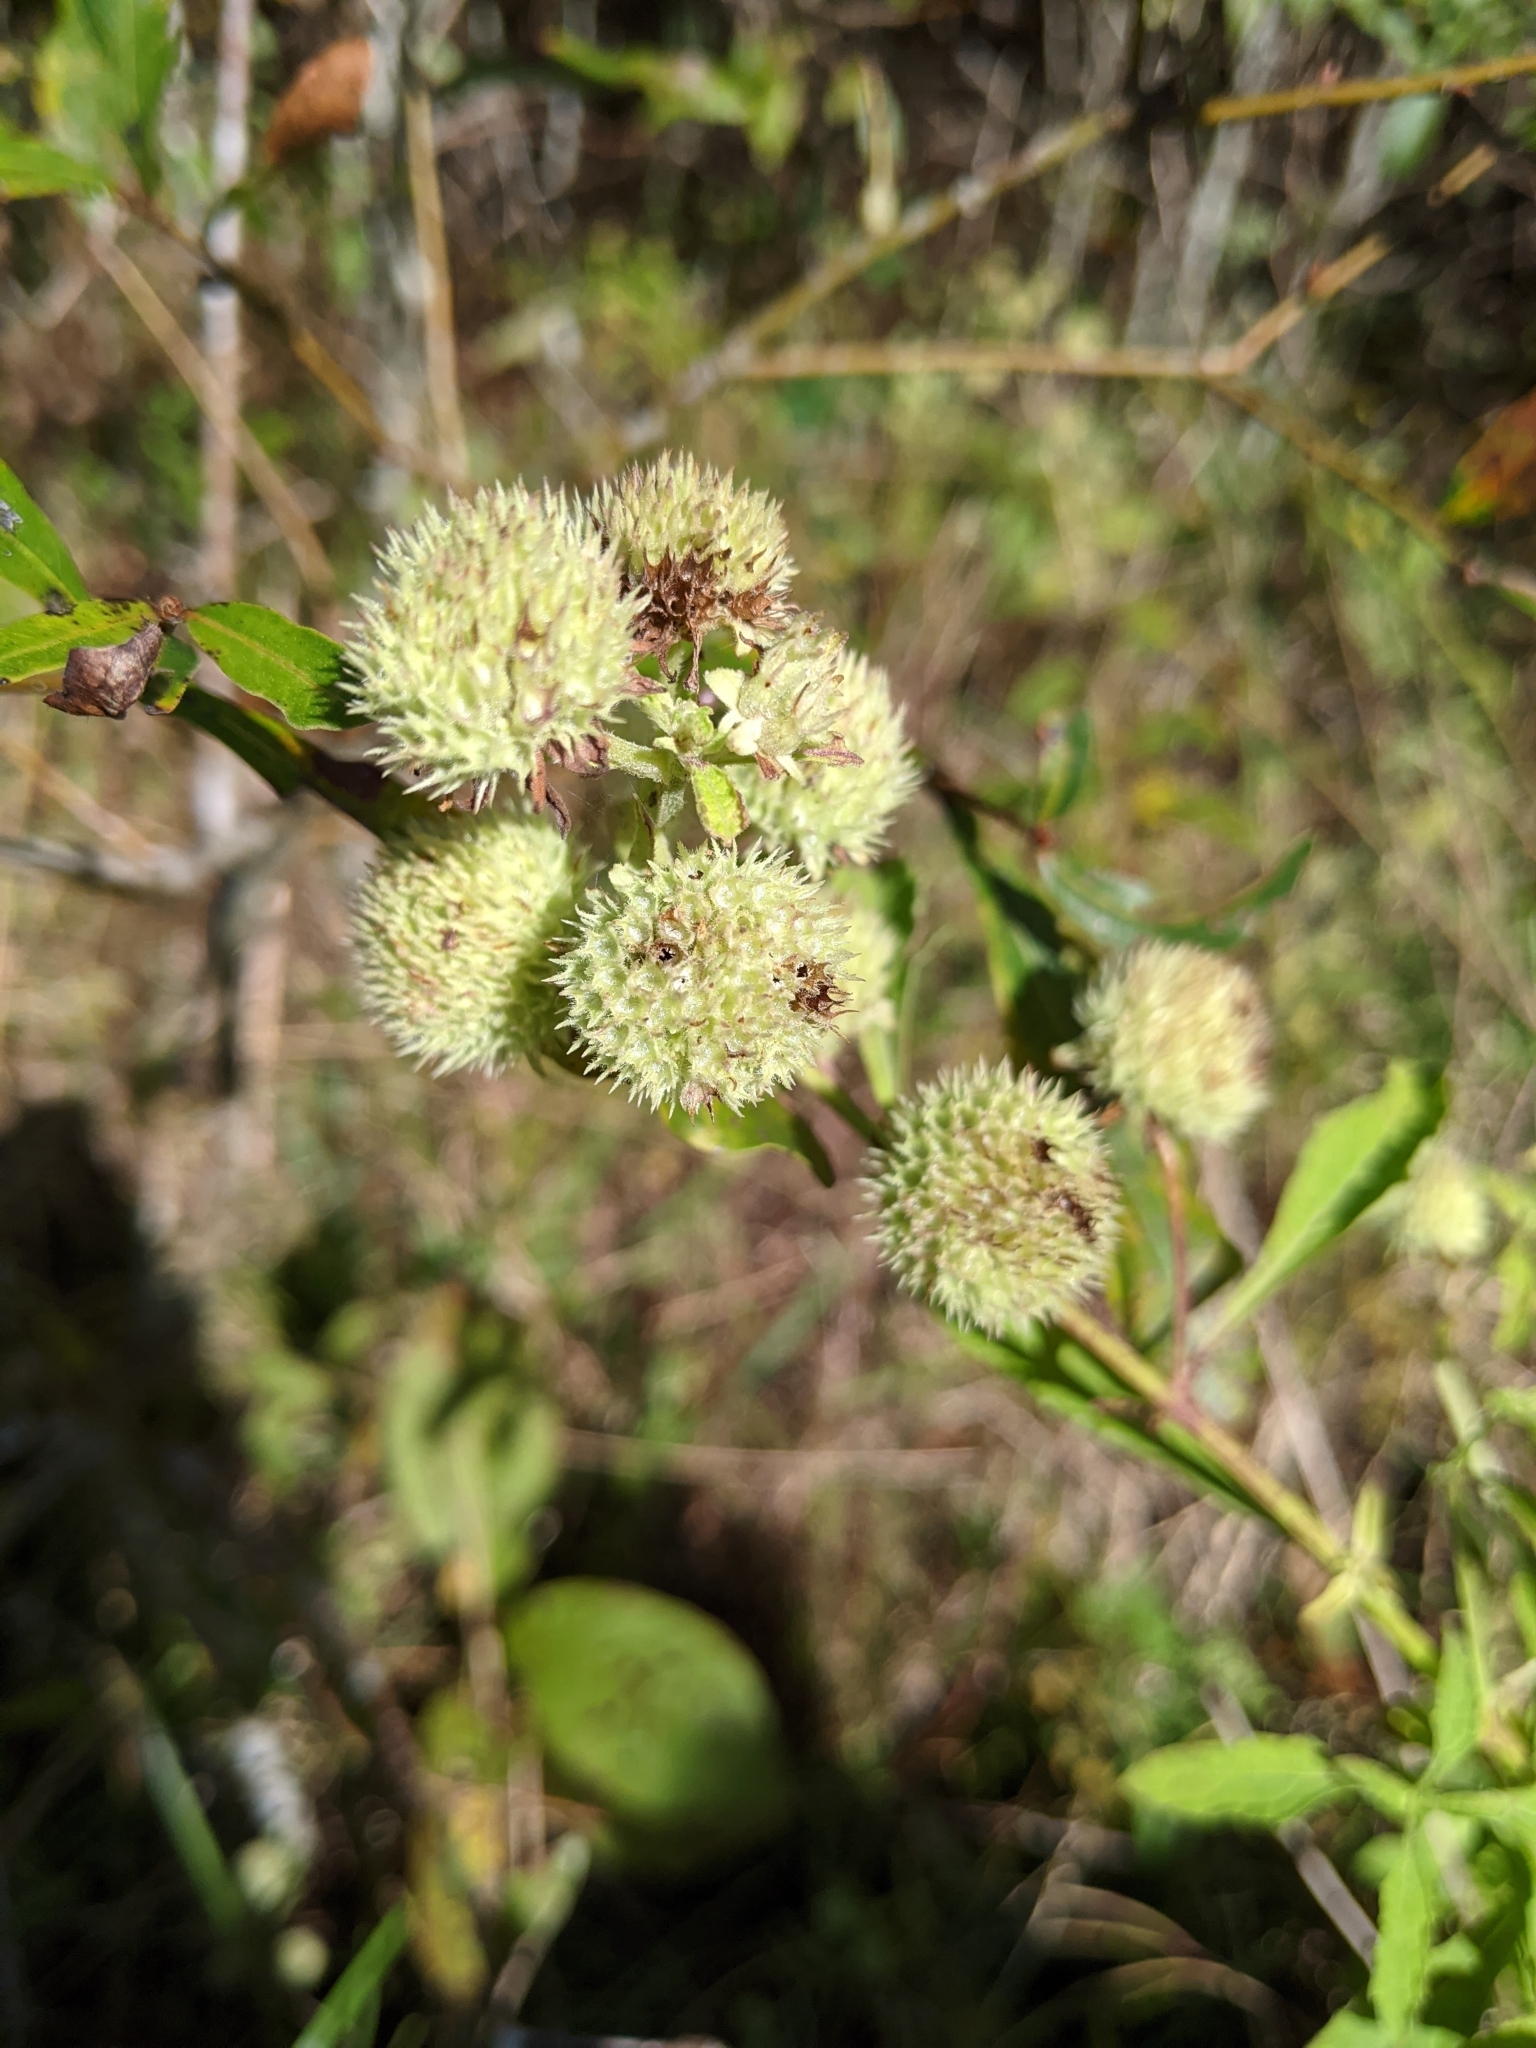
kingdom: Plantae
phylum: Tracheophyta
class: Magnoliopsida
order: Lamiales
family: Lamiaceae
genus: Hyptis
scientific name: Hyptis alata
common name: Cluster bush-mint
